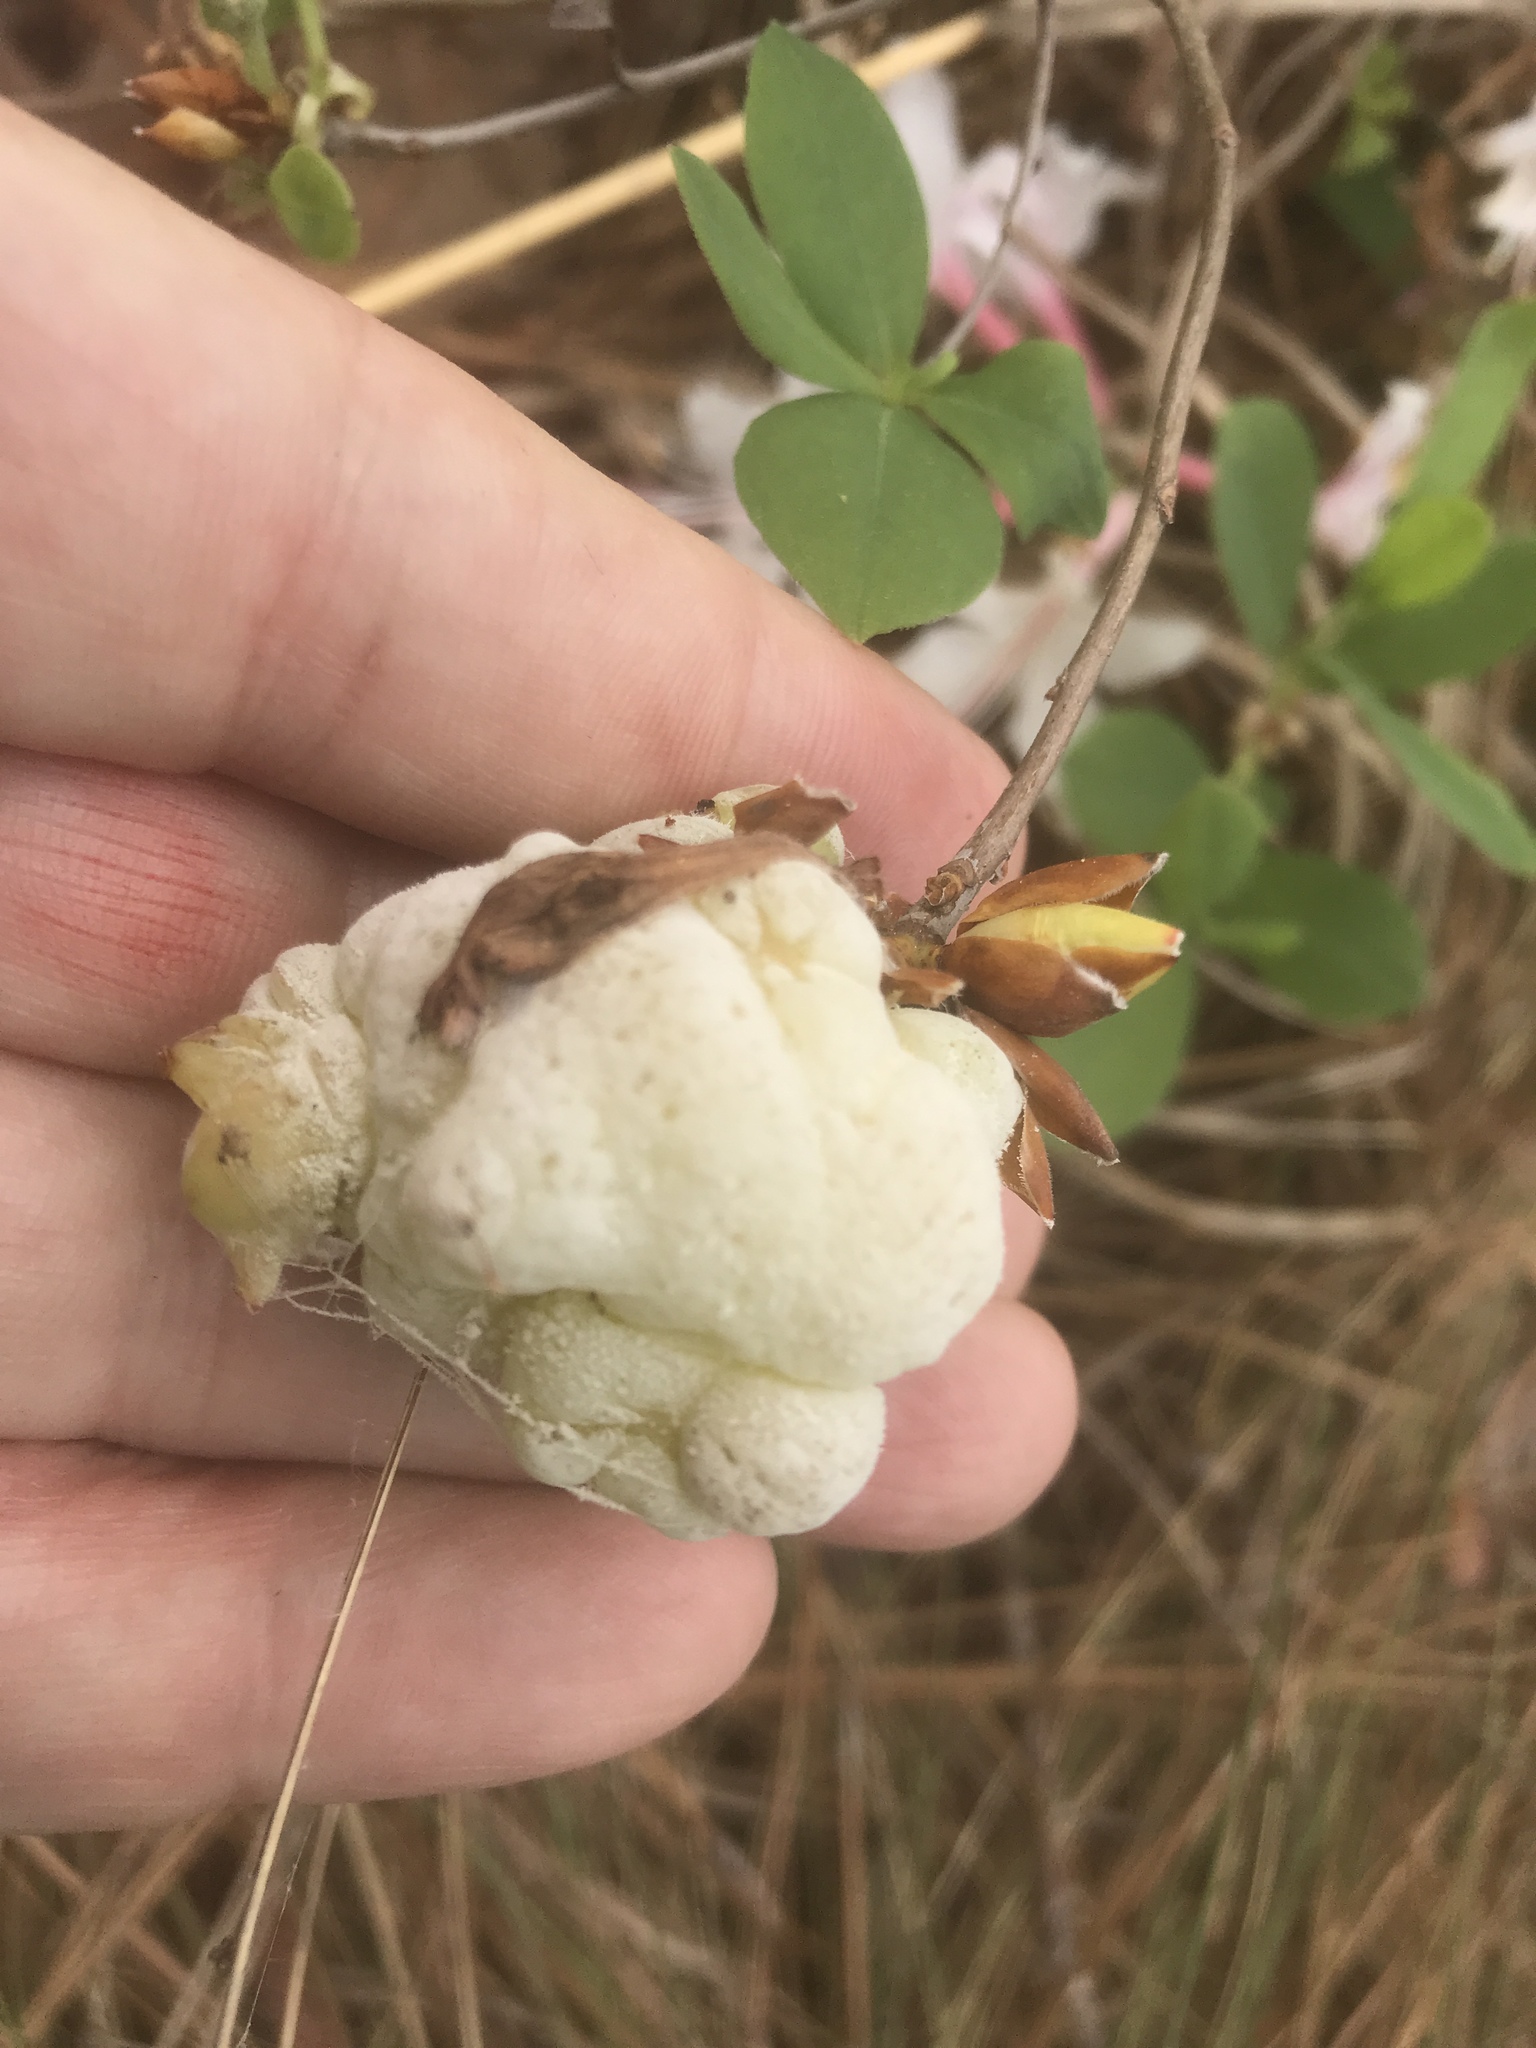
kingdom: Fungi
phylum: Basidiomycota
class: Exobasidiomycetes
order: Exobasidiales
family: Exobasidiaceae
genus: Exobasidium
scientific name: Exobasidium rhododendri
